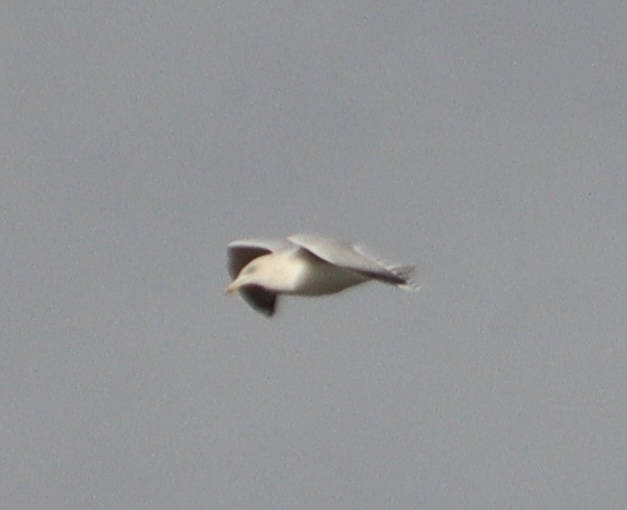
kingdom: Animalia
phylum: Chordata
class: Aves
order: Charadriiformes
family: Laridae
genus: Larus
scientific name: Larus argentatus
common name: Herring gull
